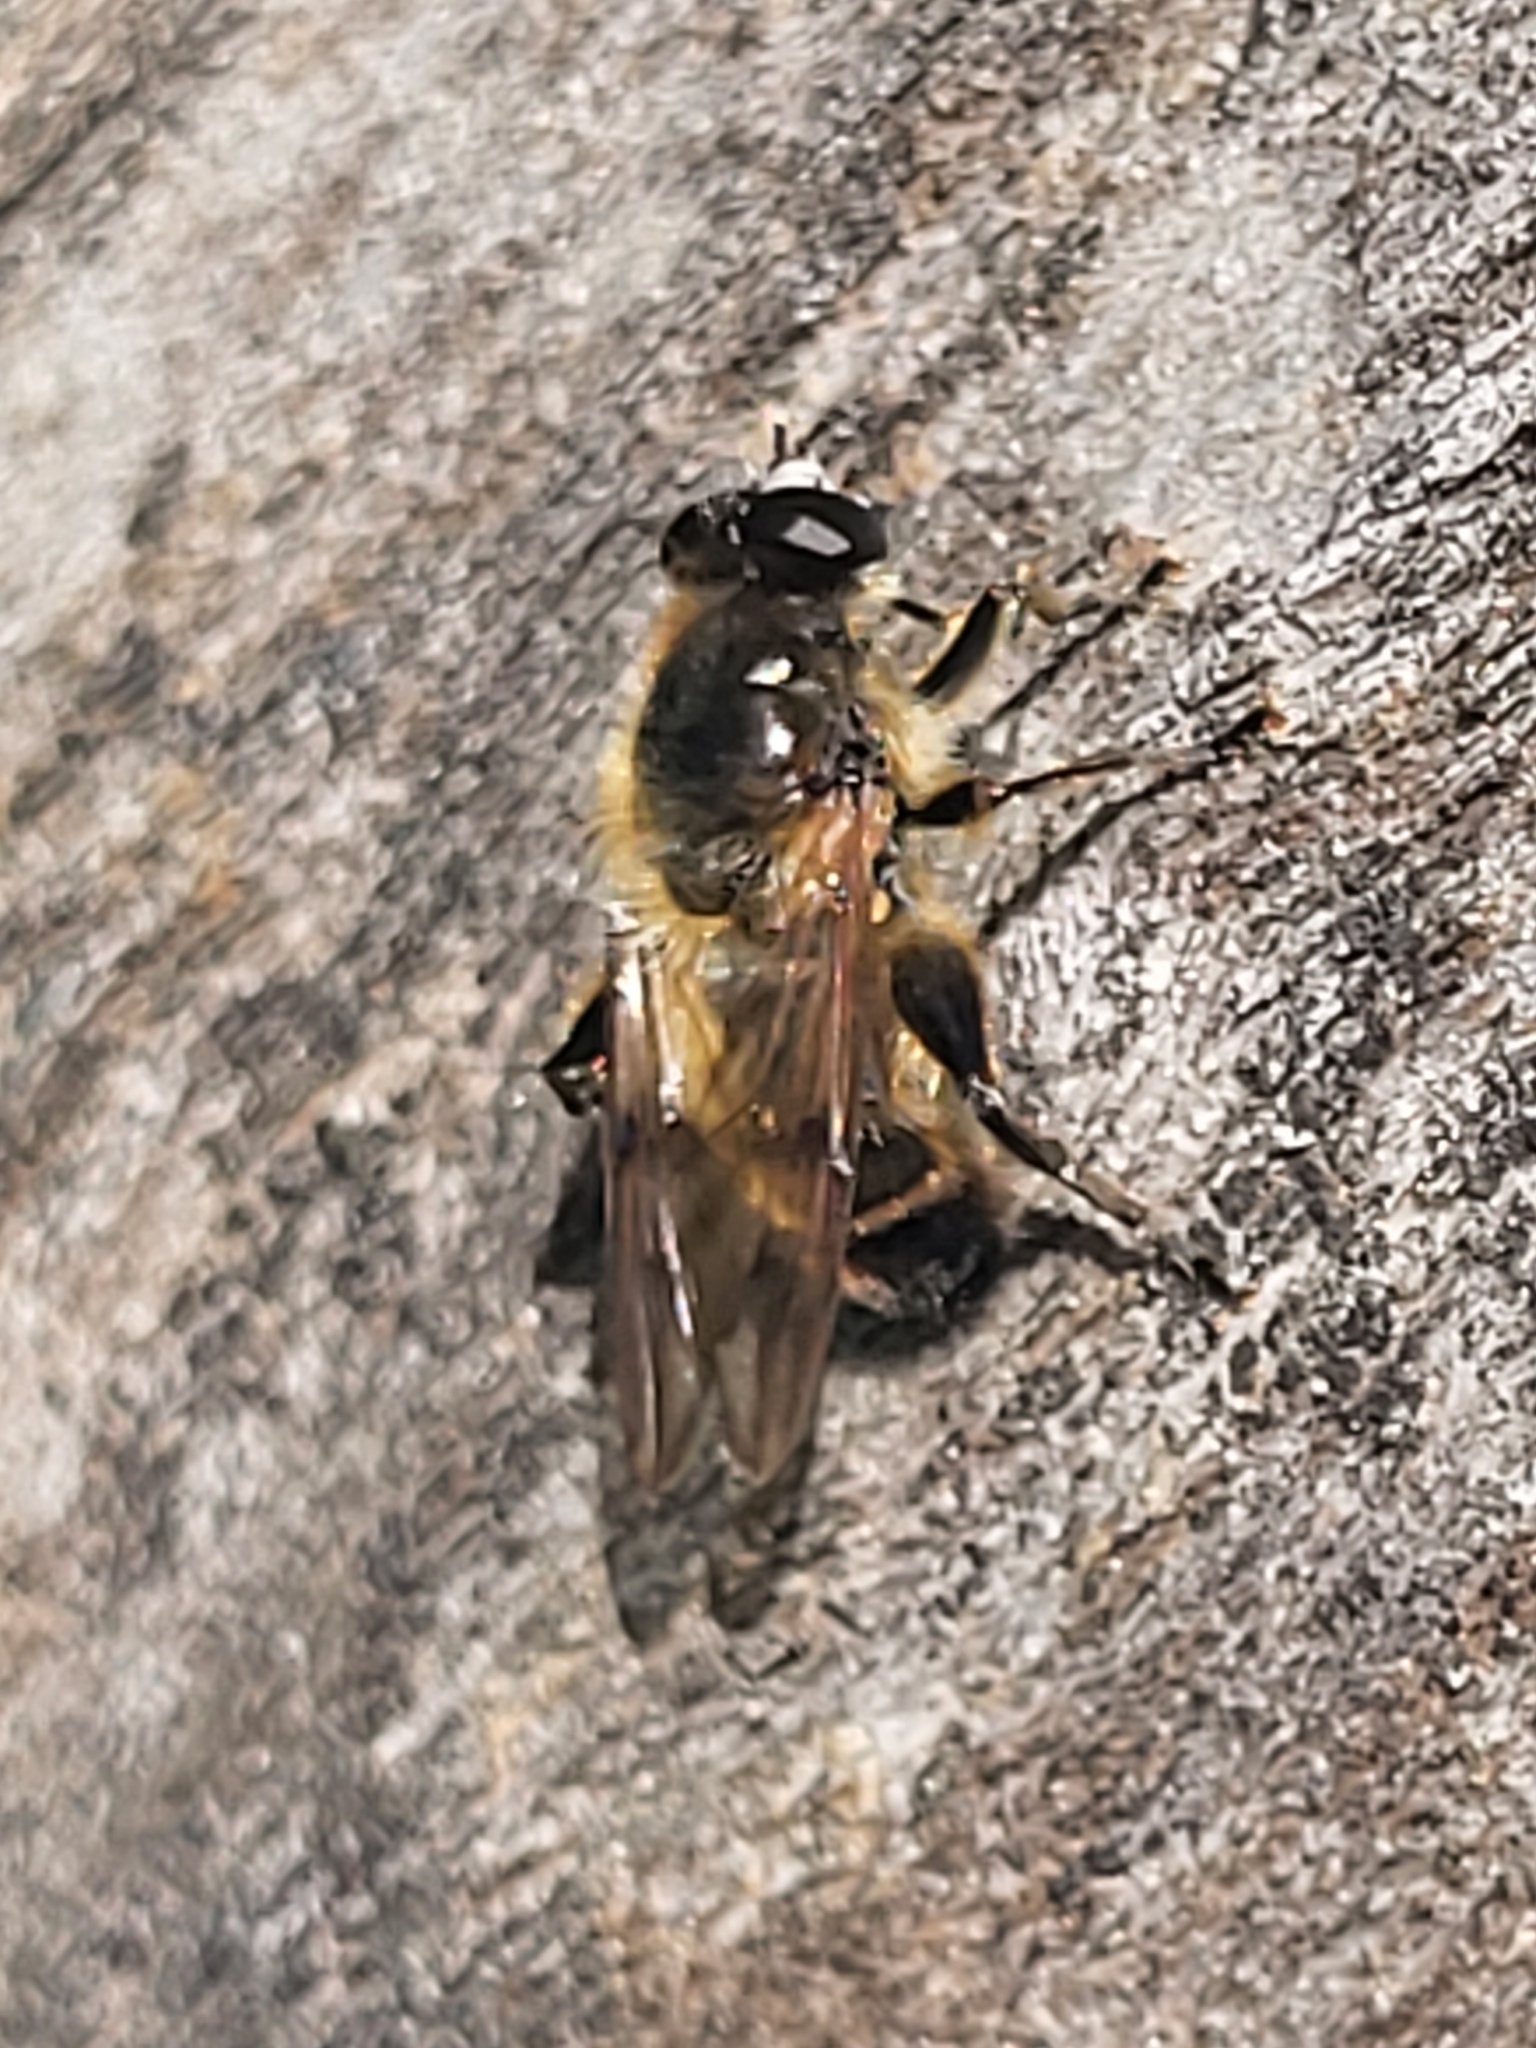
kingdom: Animalia
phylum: Arthropoda
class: Insecta
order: Diptera
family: Syrphidae
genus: Brachypalpus
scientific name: Brachypalpus valgus
